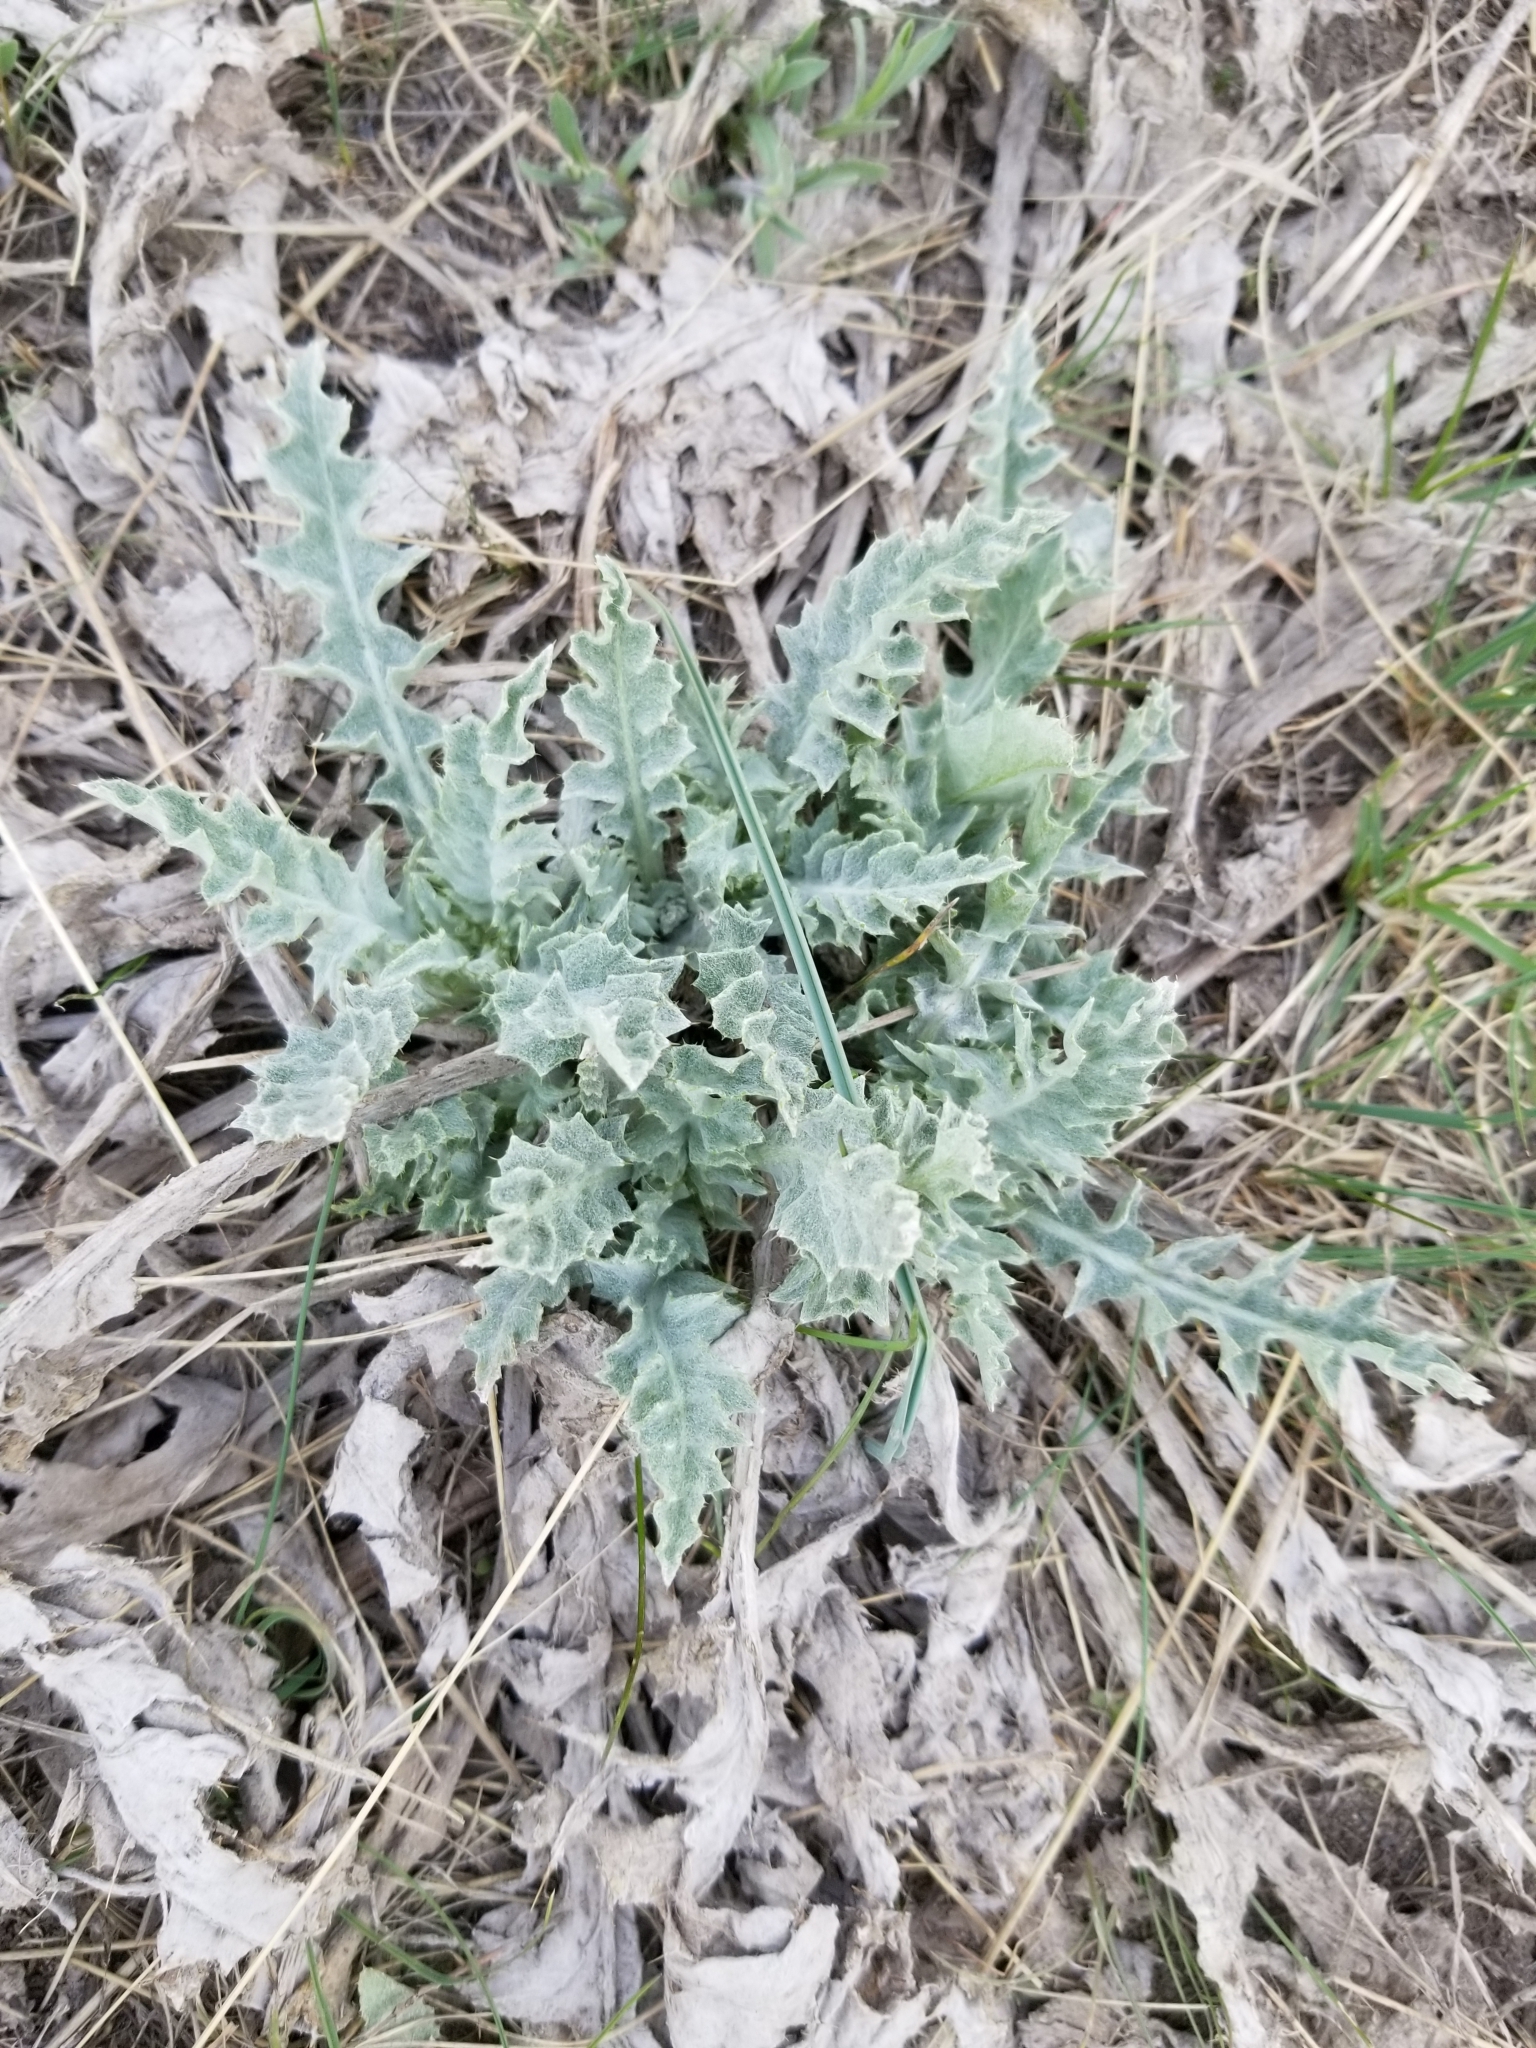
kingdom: Plantae
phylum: Tracheophyta
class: Magnoliopsida
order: Asterales
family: Asteraceae
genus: Cirsium
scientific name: Cirsium undulatum
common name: Pasture thistle
